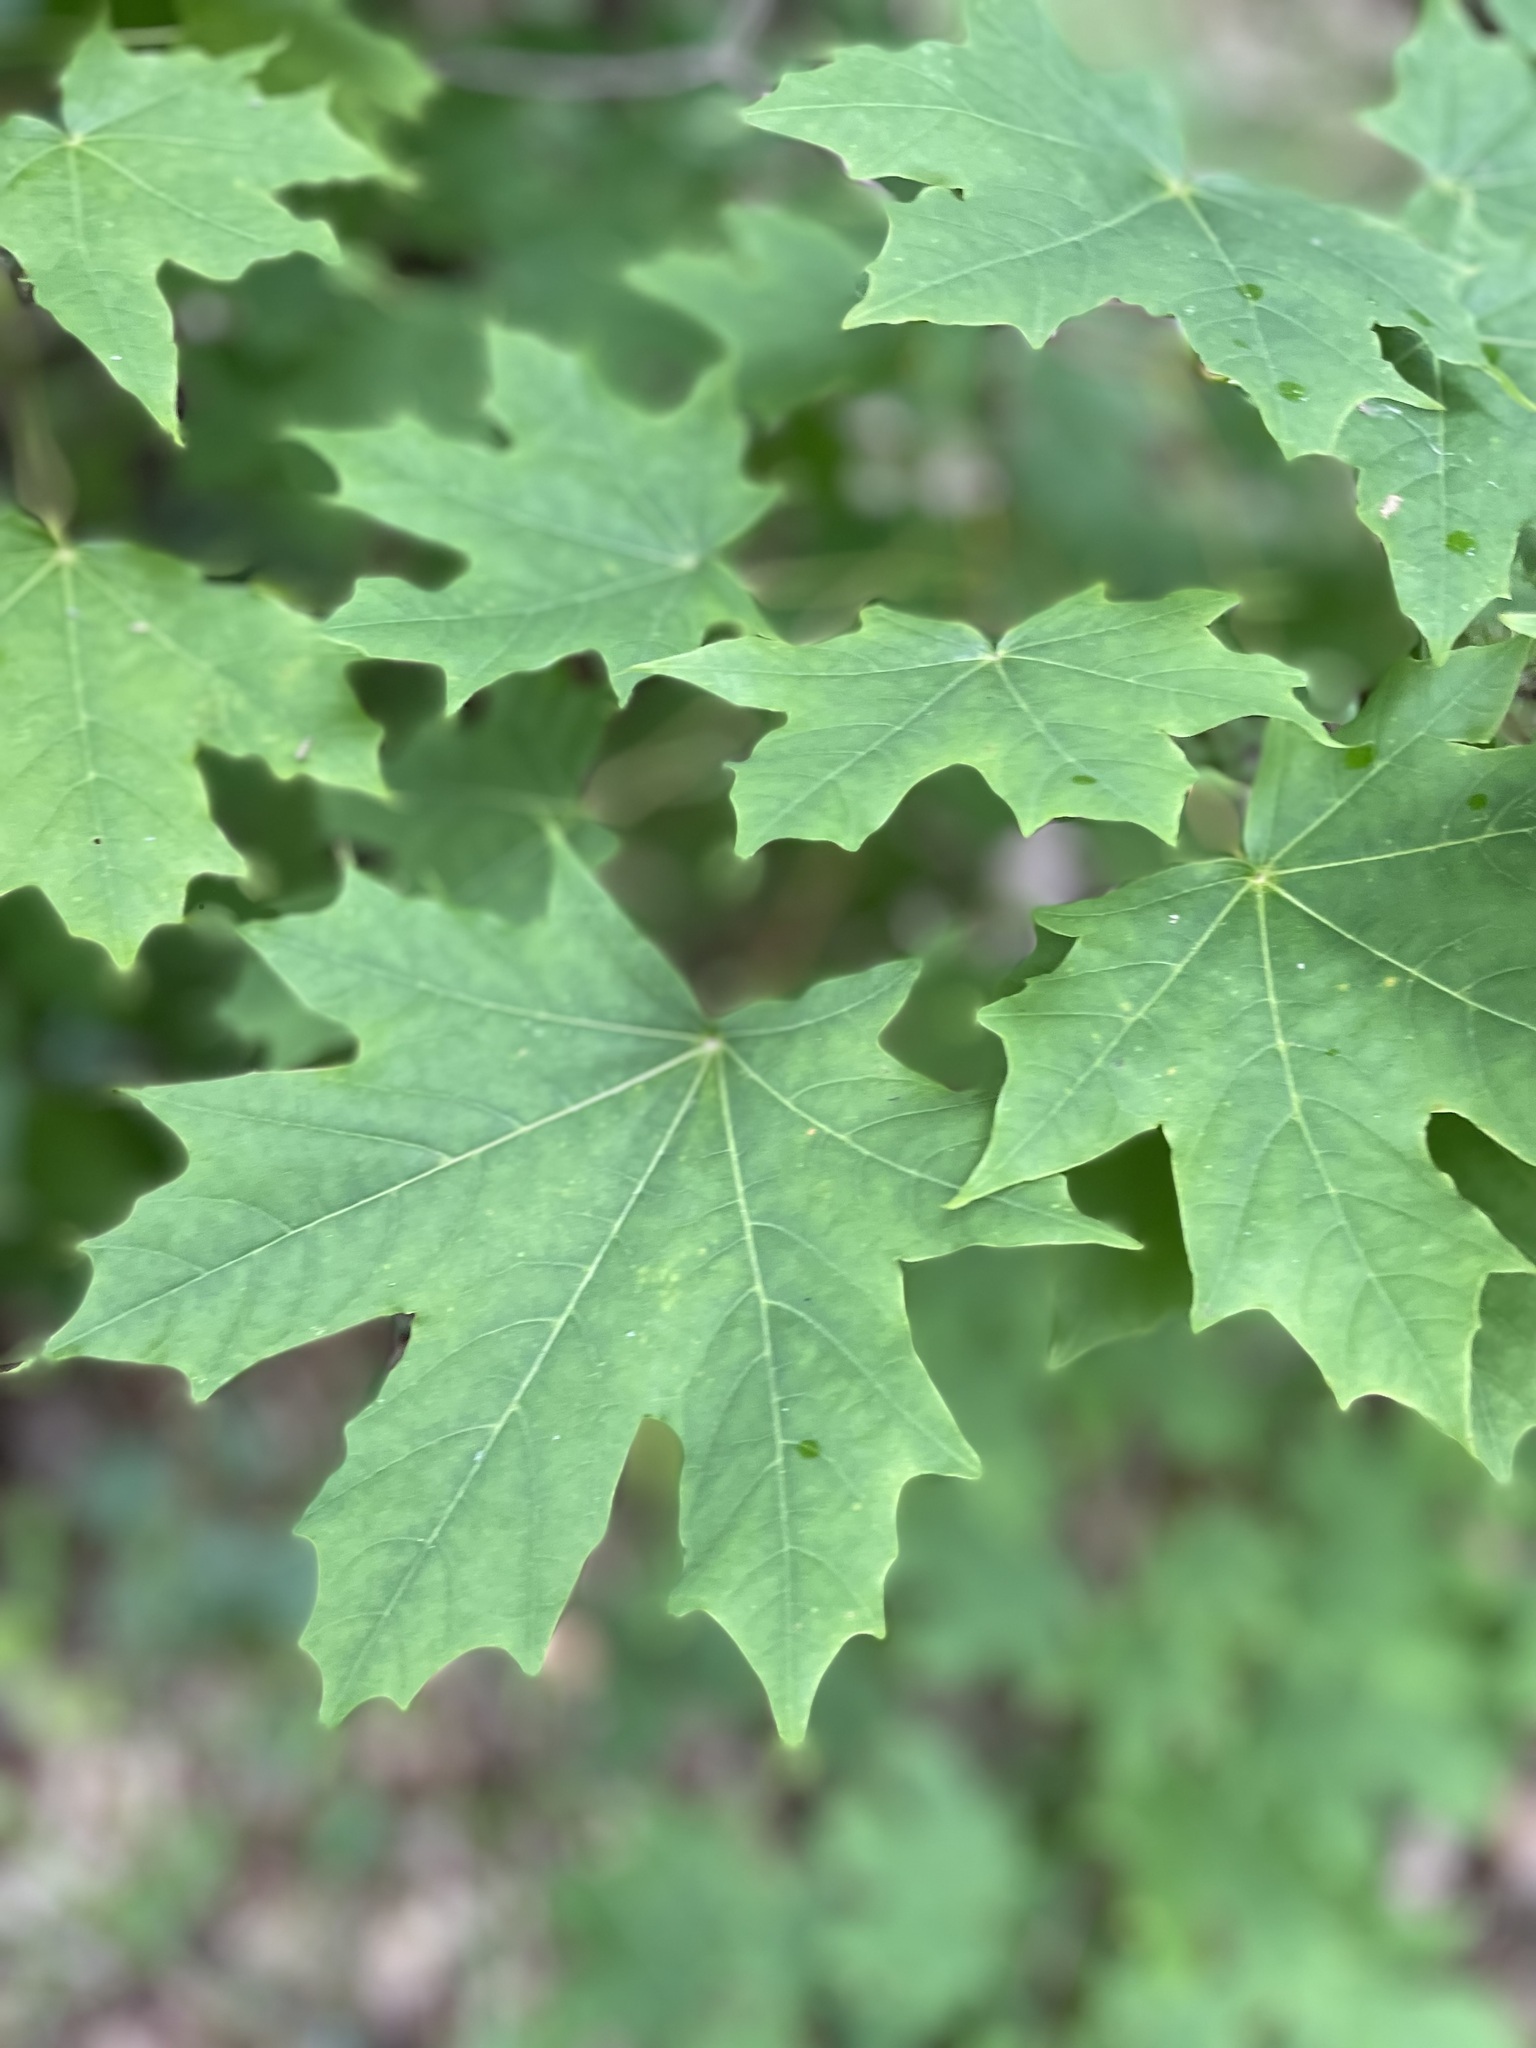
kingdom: Plantae
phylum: Tracheophyta
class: Magnoliopsida
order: Sapindales
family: Sapindaceae
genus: Acer
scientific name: Acer platanoides
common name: Norway maple
